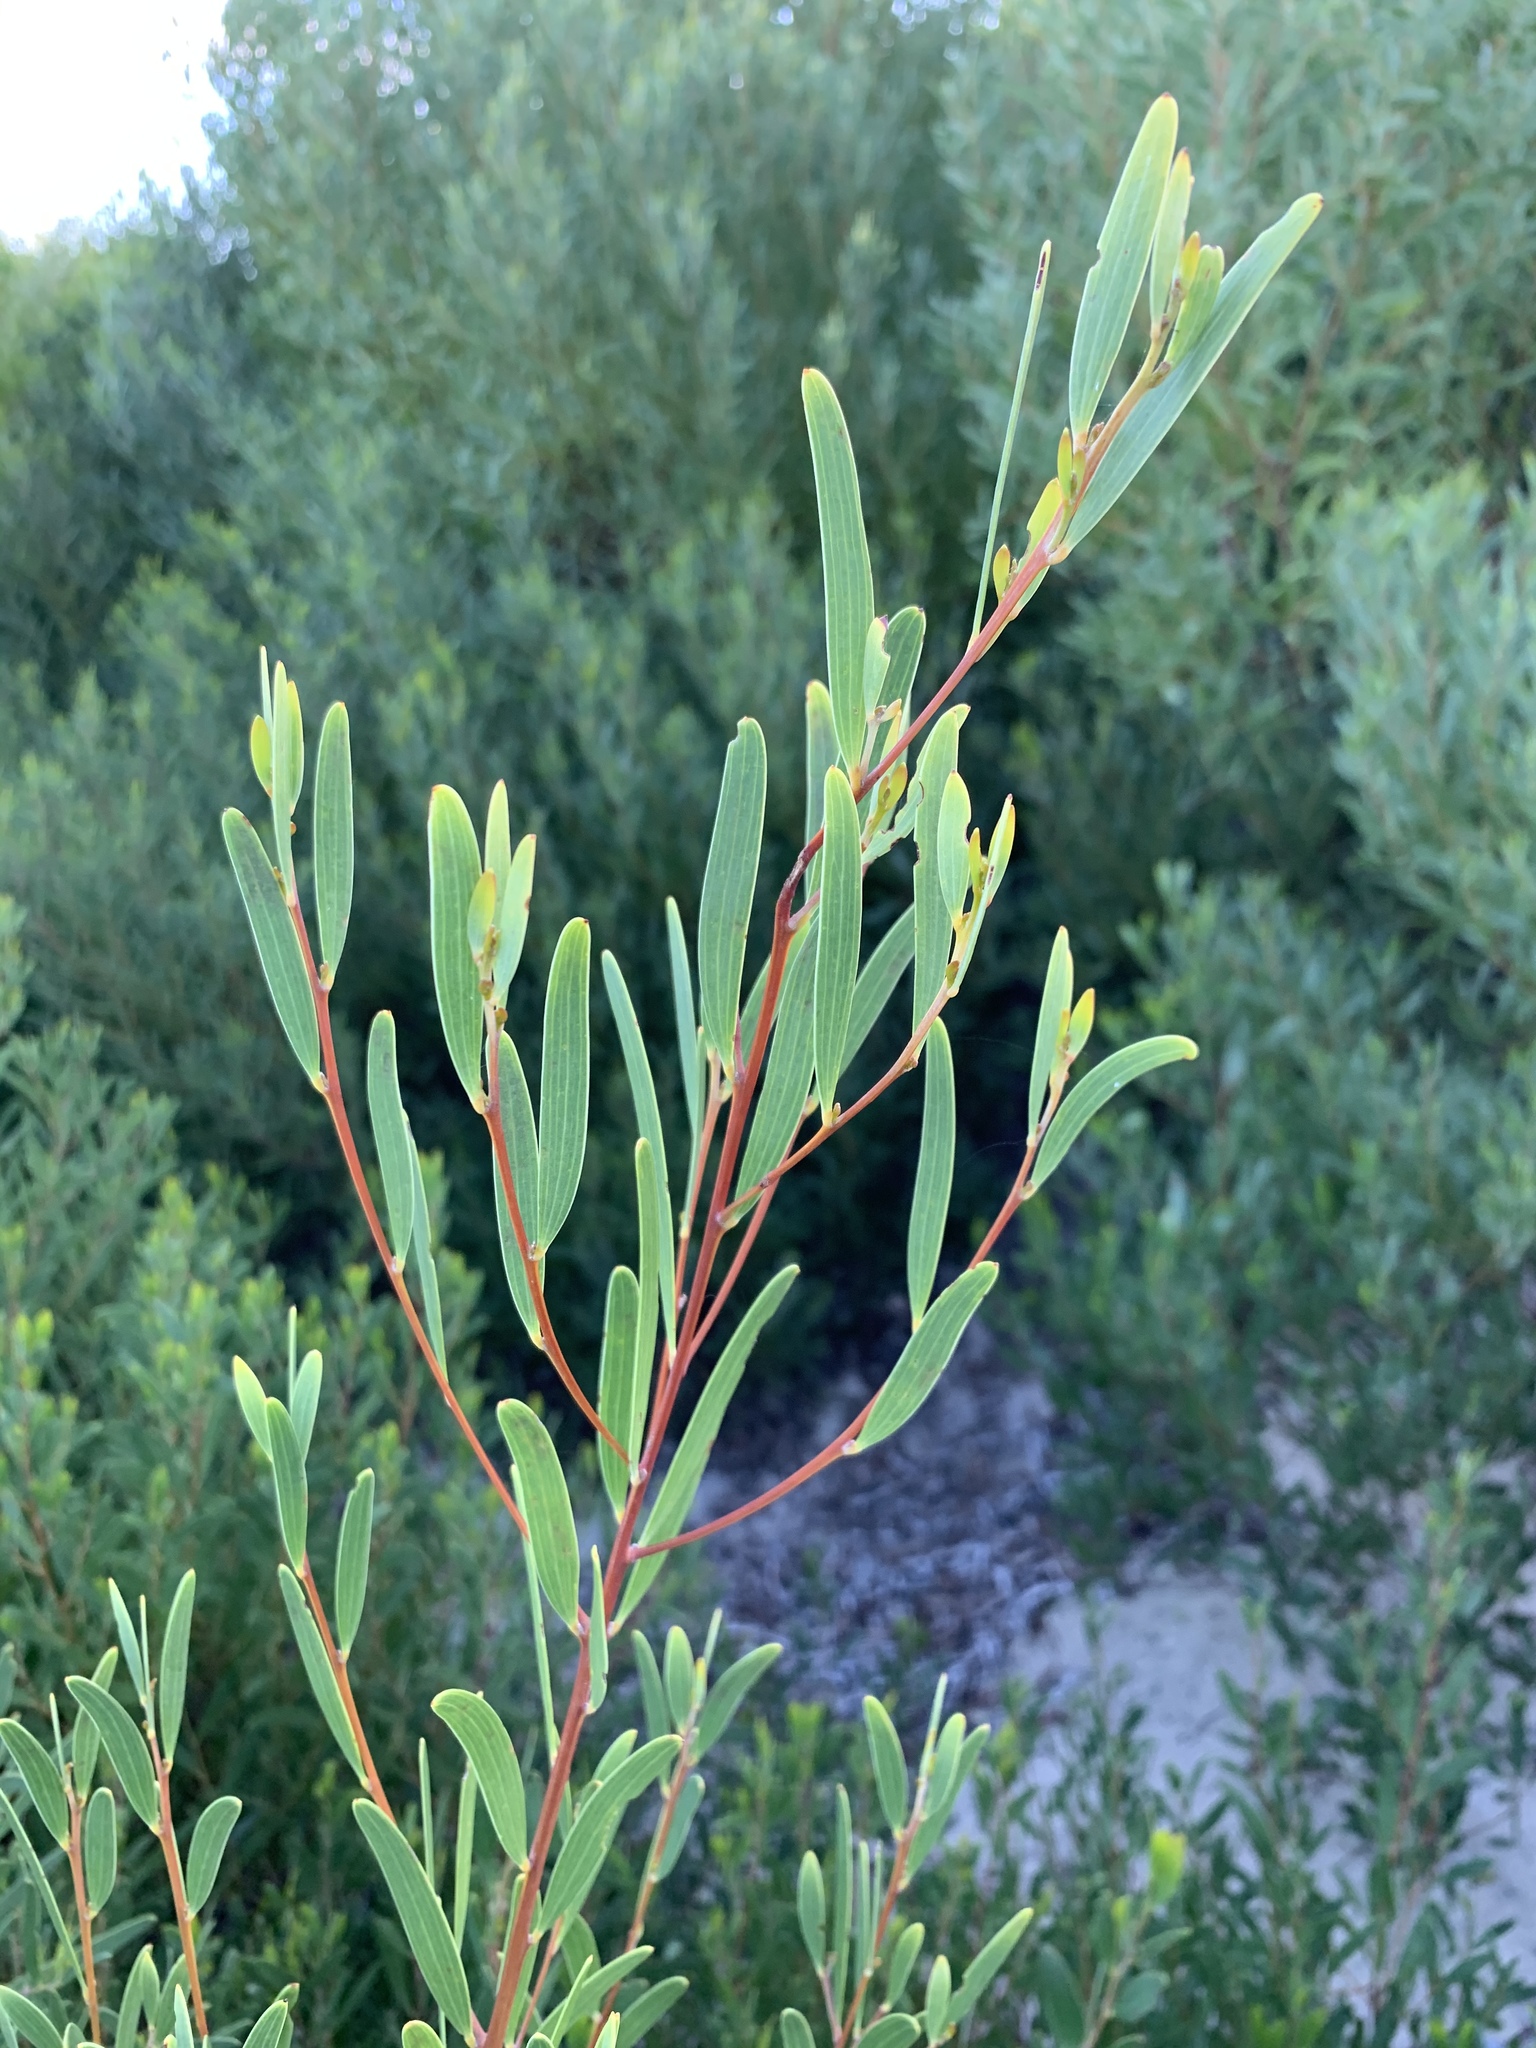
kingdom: Plantae
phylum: Tracheophyta
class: Magnoliopsida
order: Fabales
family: Fabaceae
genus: Acacia
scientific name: Acacia cyclops
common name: Coastal wattle
